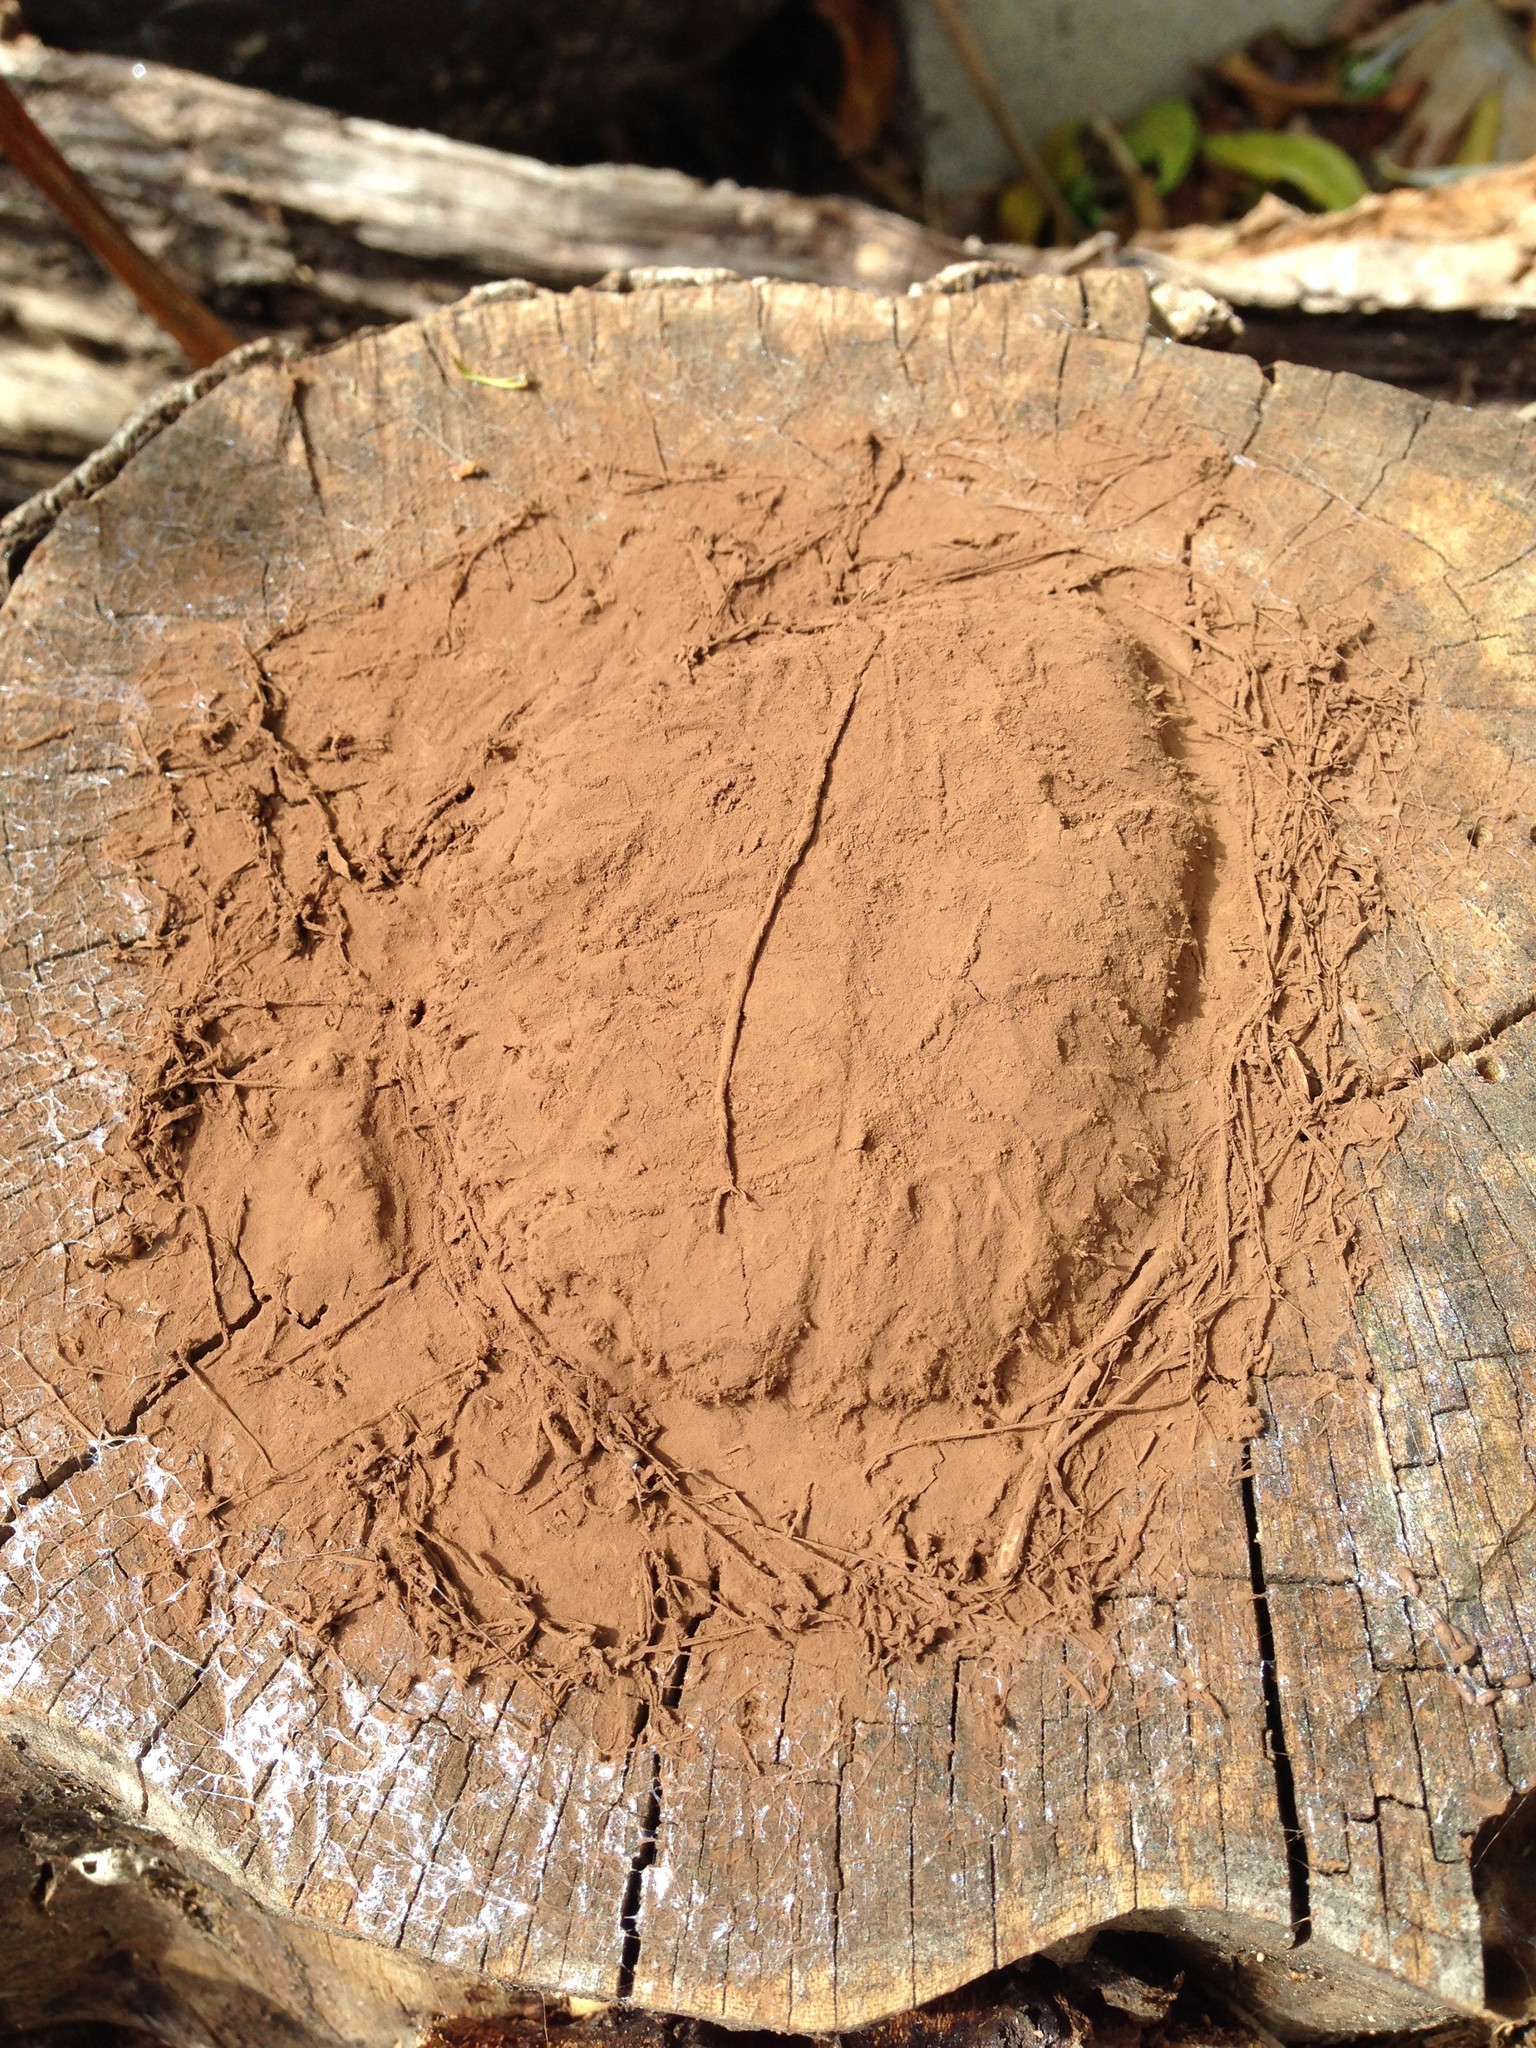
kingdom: Protozoa
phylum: Mycetozoa
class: Myxomycetes
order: Cribrariales
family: Tubiferaceae
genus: Reticularia
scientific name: Reticularia lycoperdon
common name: False puffball
